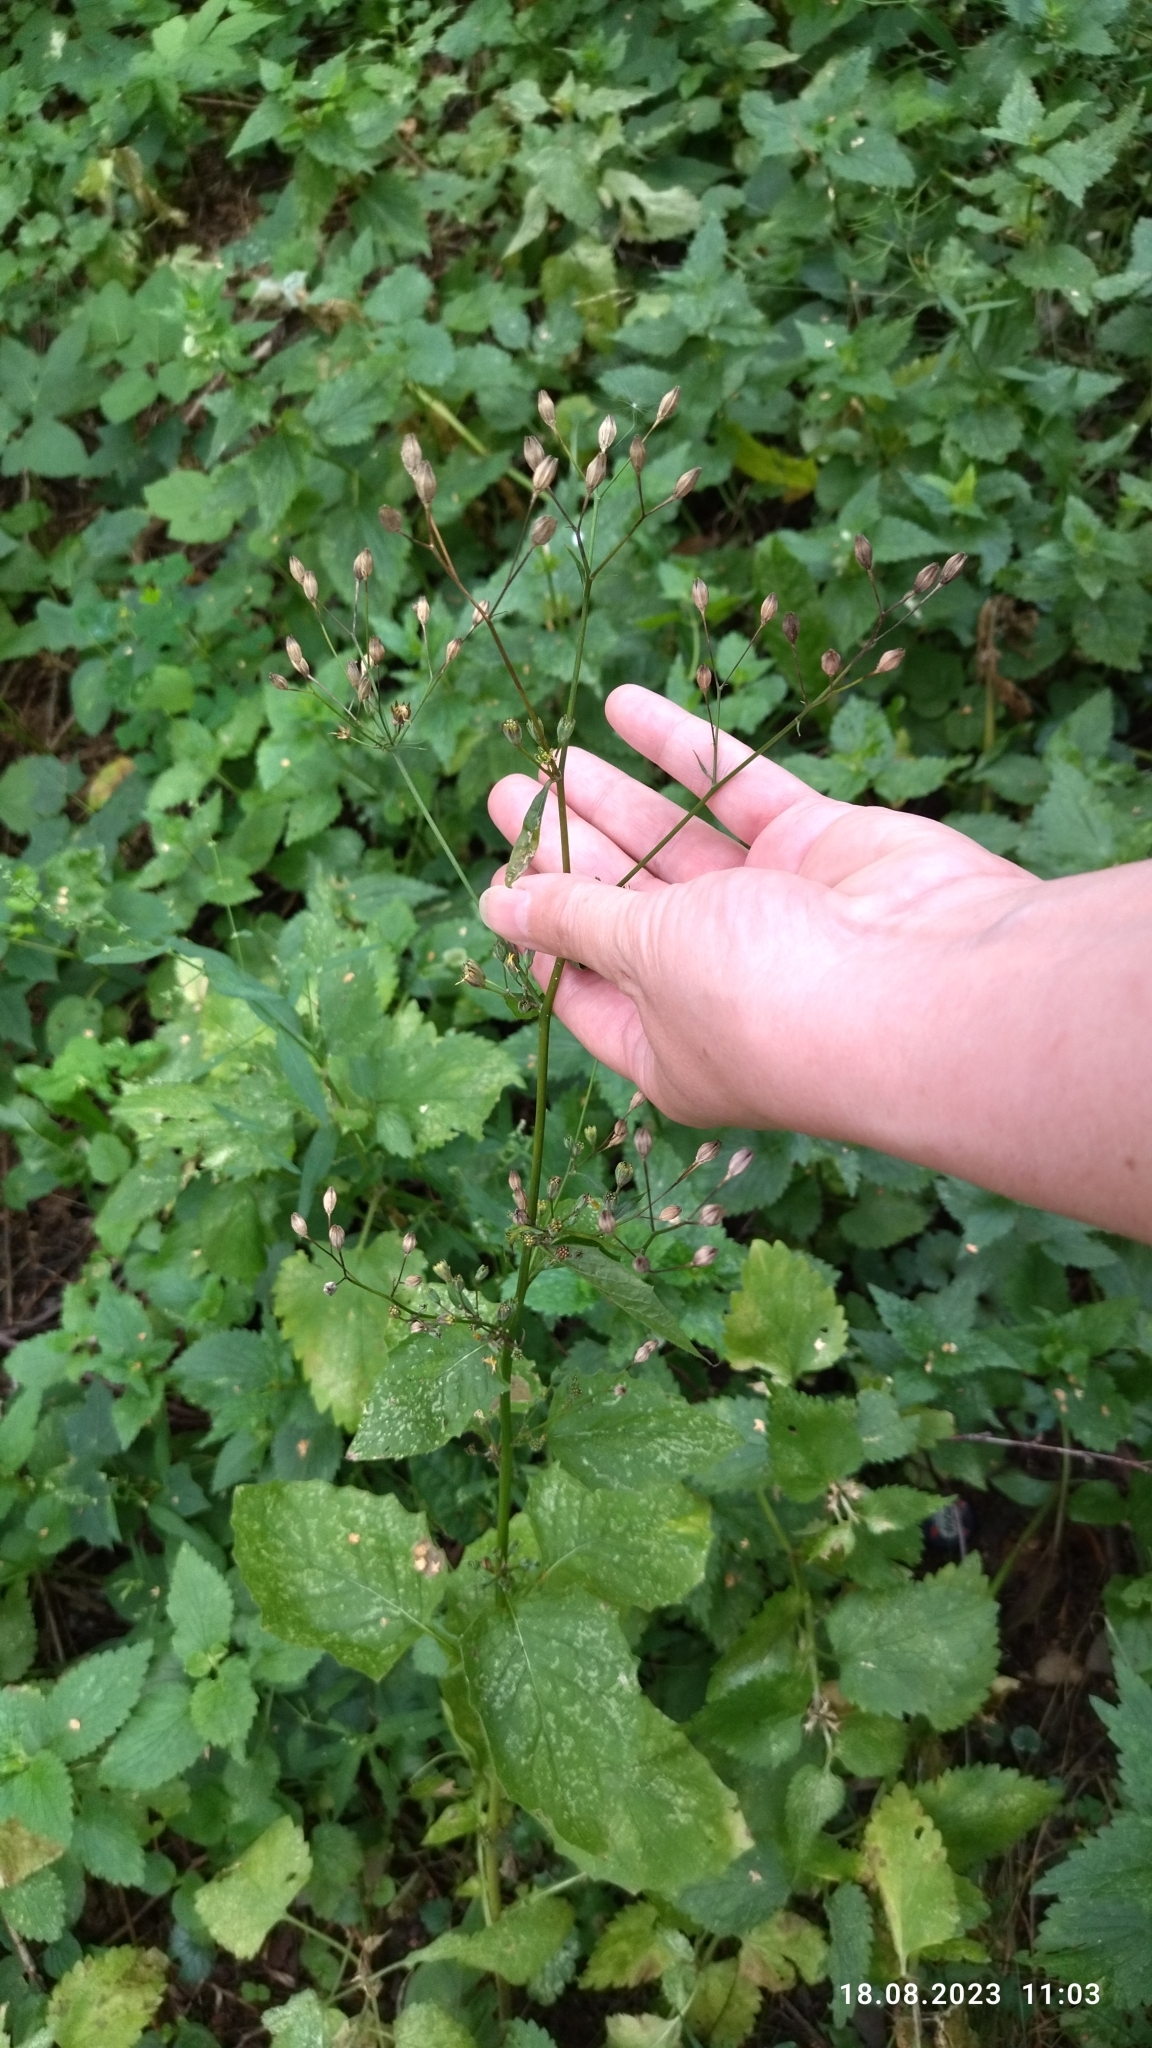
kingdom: Plantae
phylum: Tracheophyta
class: Magnoliopsida
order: Asterales
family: Asteraceae
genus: Lapsana
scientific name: Lapsana communis
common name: Nipplewort
